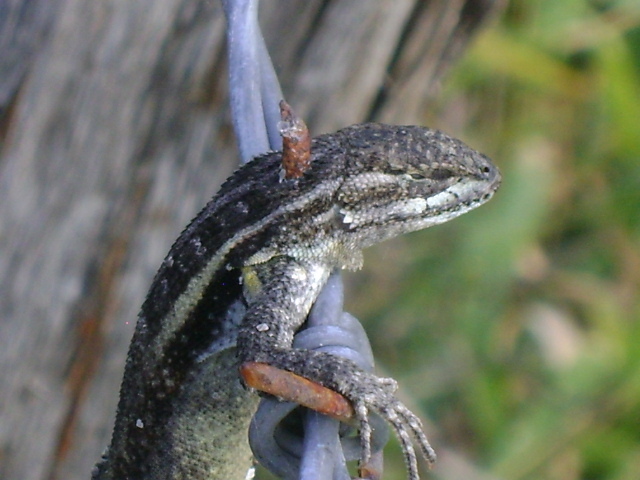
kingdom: Animalia
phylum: Chordata
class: Squamata
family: Phrynosomatidae
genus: Sceloporus
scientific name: Sceloporus variabilis
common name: Rosebelly lizard
